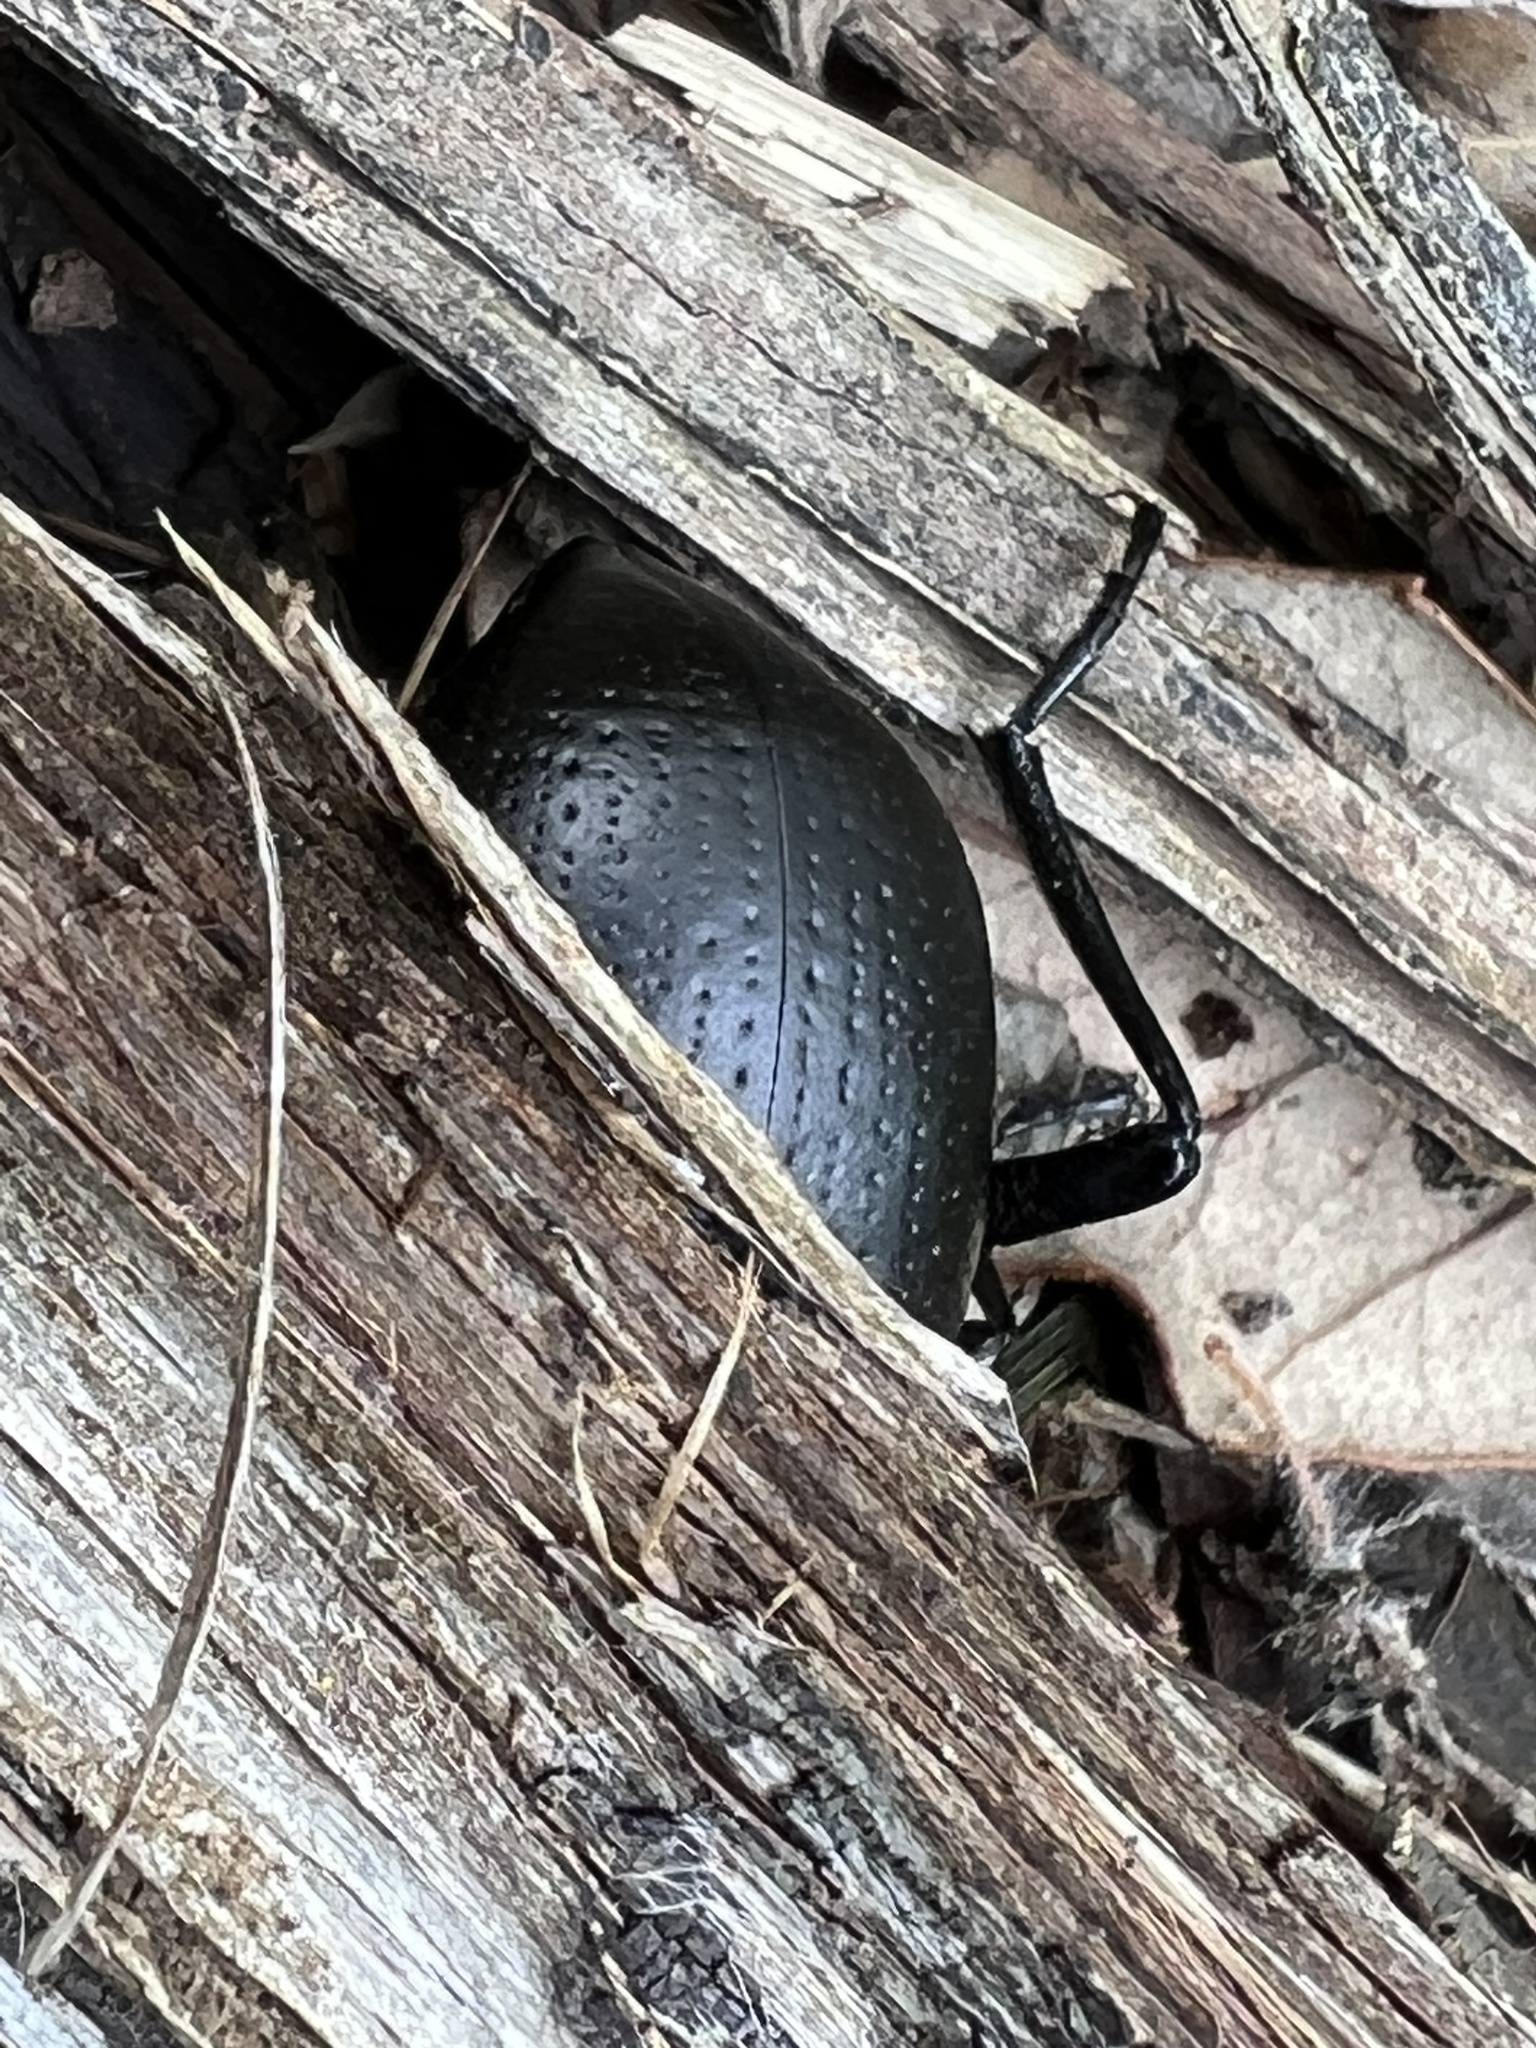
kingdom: Animalia
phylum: Arthropoda
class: Insecta
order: Coleoptera
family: Tenebrionidae
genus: Eleodes
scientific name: Eleodes goryi
